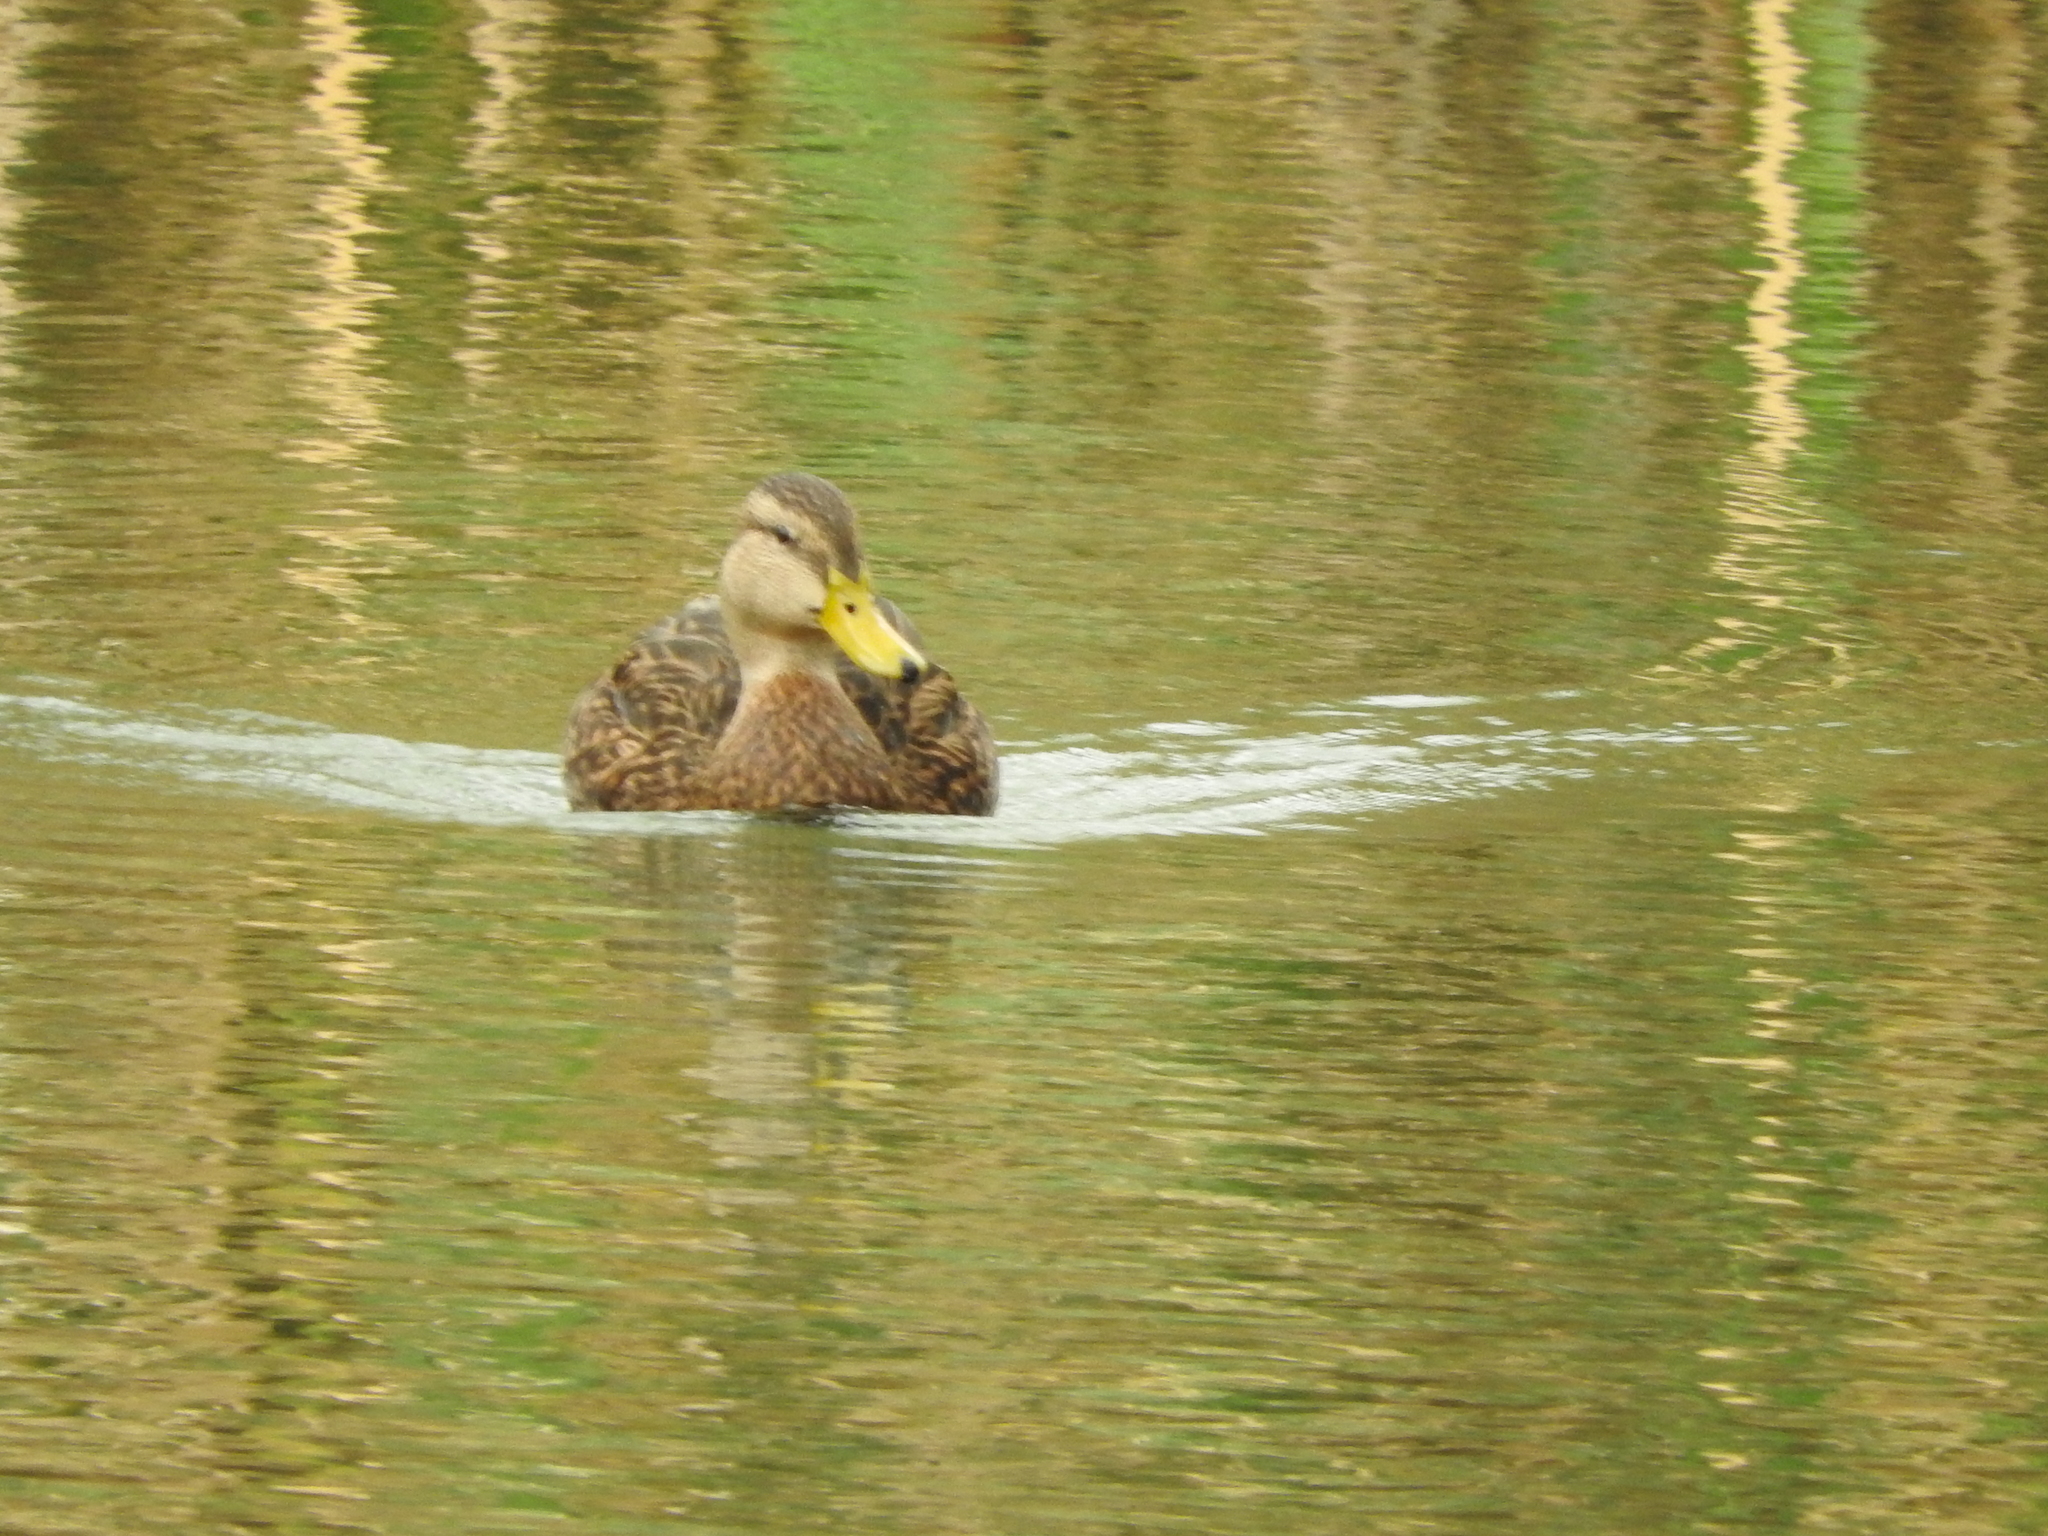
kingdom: Animalia
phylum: Chordata
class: Aves
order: Anseriformes
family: Anatidae
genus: Anas
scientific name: Anas diazi
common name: Mexican duck
